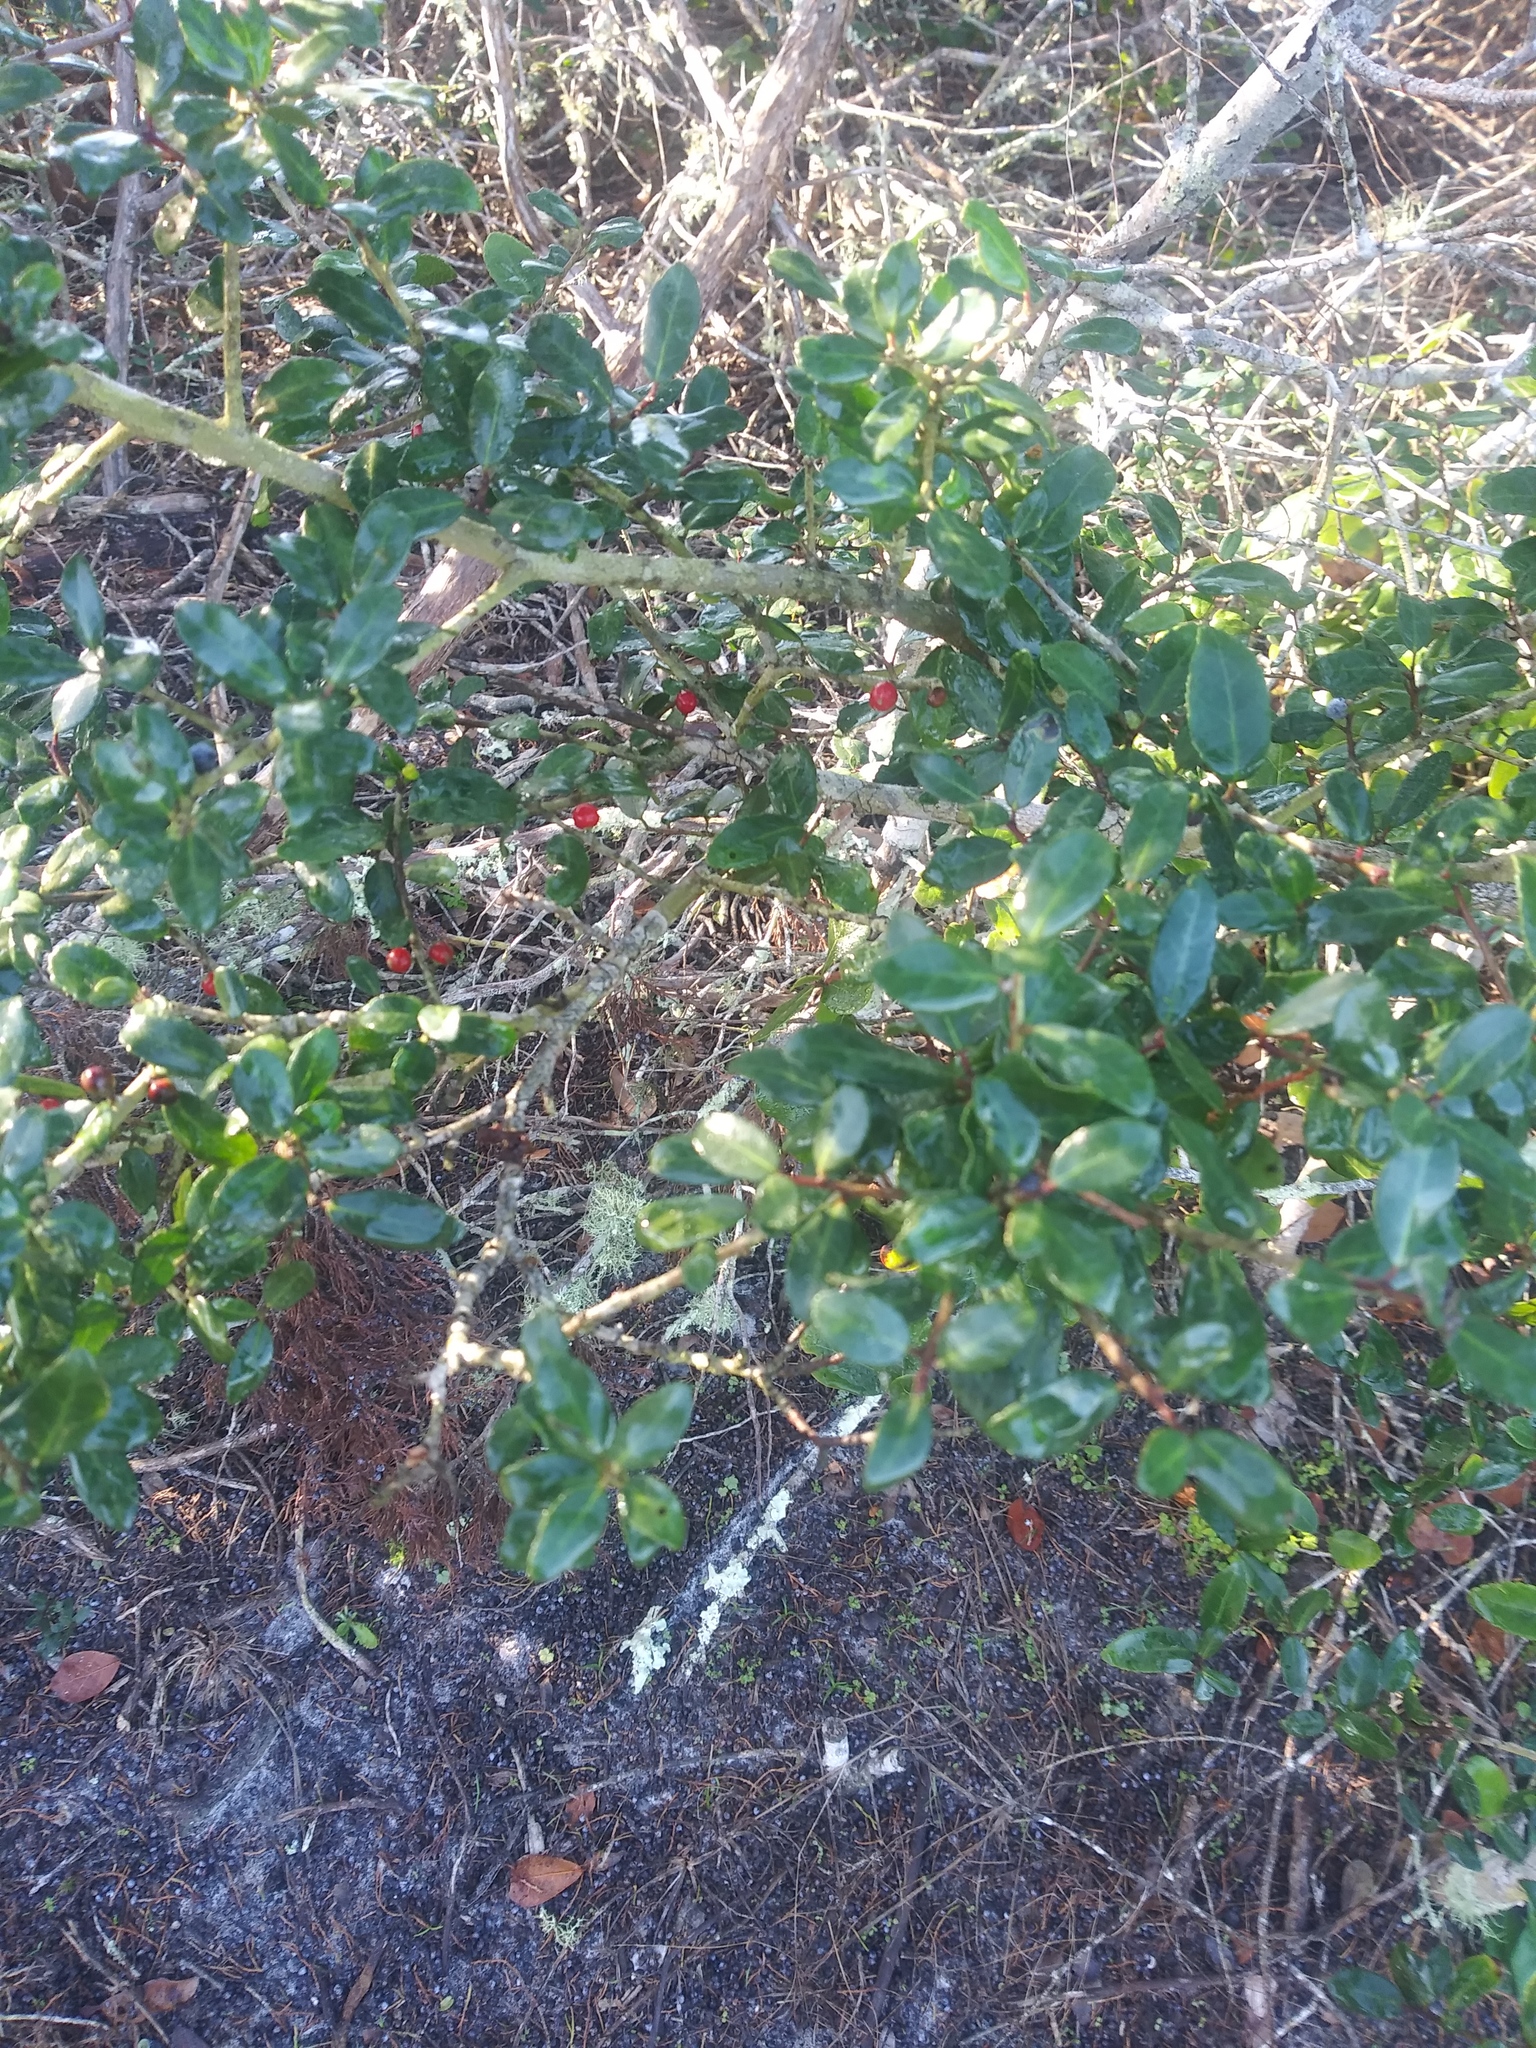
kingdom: Plantae
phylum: Tracheophyta
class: Magnoliopsida
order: Aquifoliales
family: Aquifoliaceae
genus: Ilex
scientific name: Ilex vomitoria
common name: Yaupon holly
